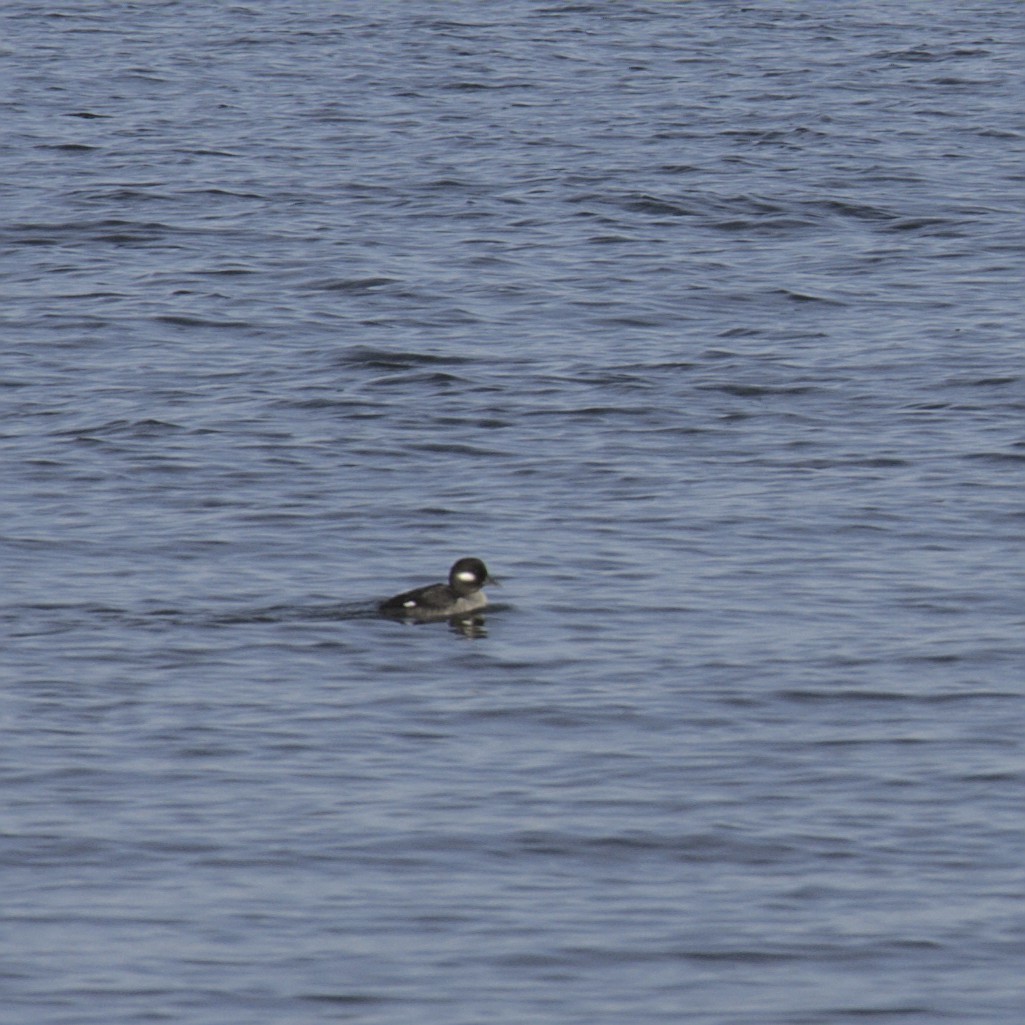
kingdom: Animalia
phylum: Chordata
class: Aves
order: Anseriformes
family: Anatidae
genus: Bucephala
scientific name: Bucephala albeola
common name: Bufflehead
